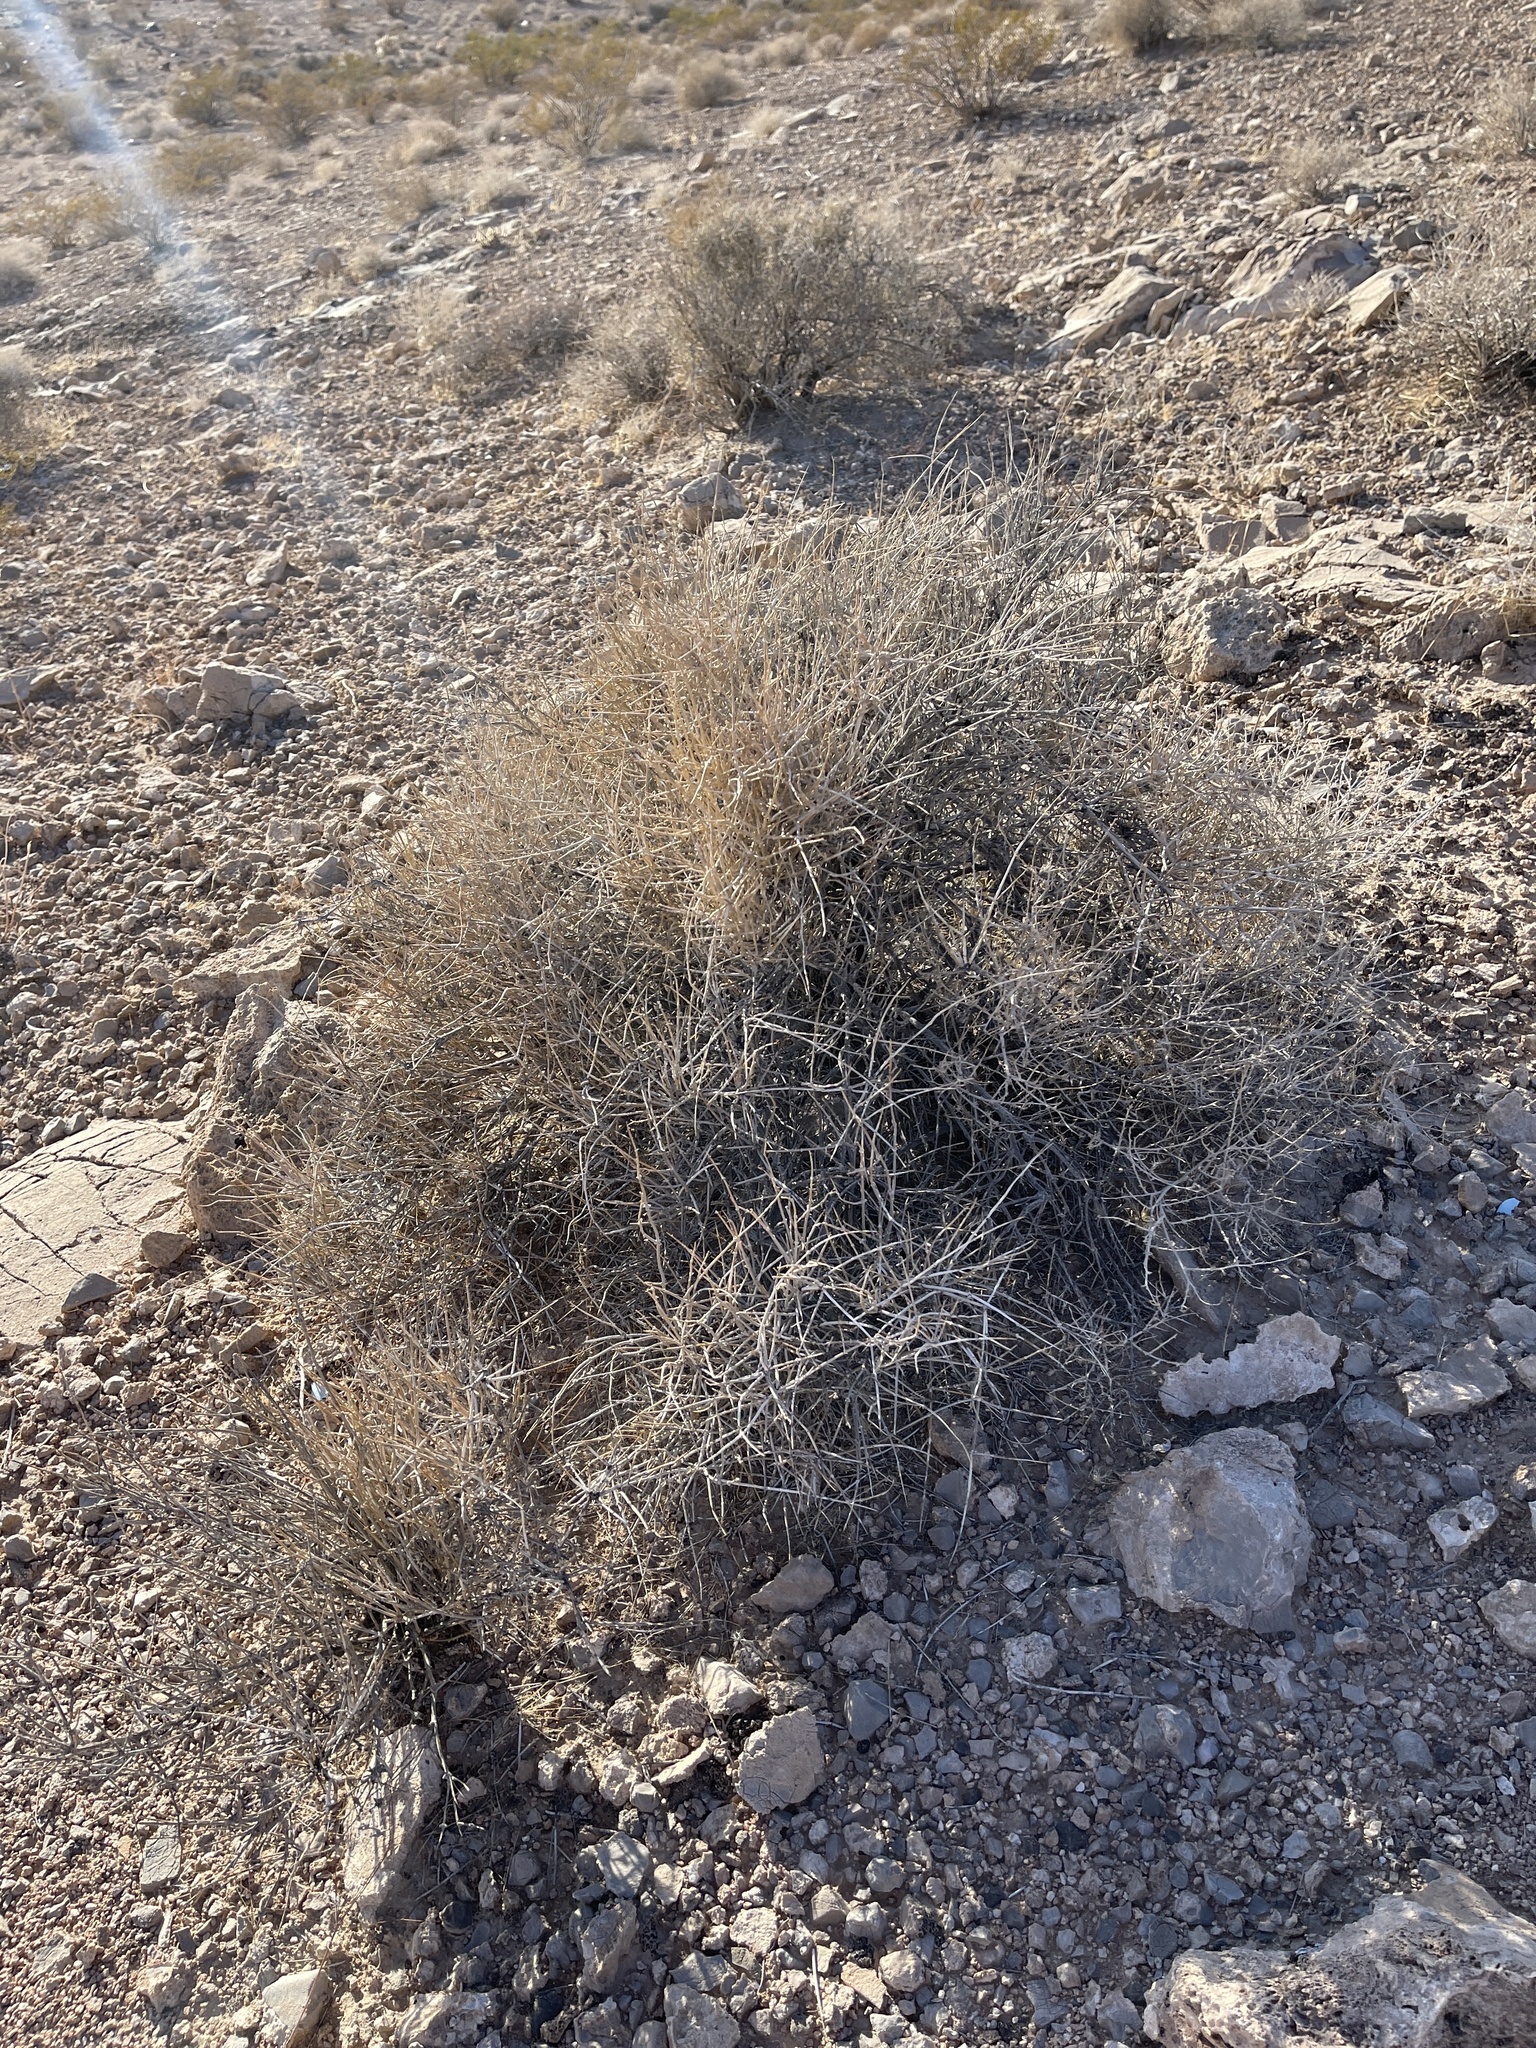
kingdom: Plantae
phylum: Tracheophyta
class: Gnetopsida
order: Ephedrales
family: Ephedraceae
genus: Ephedra
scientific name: Ephedra nevadensis
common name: Gray ephedra
